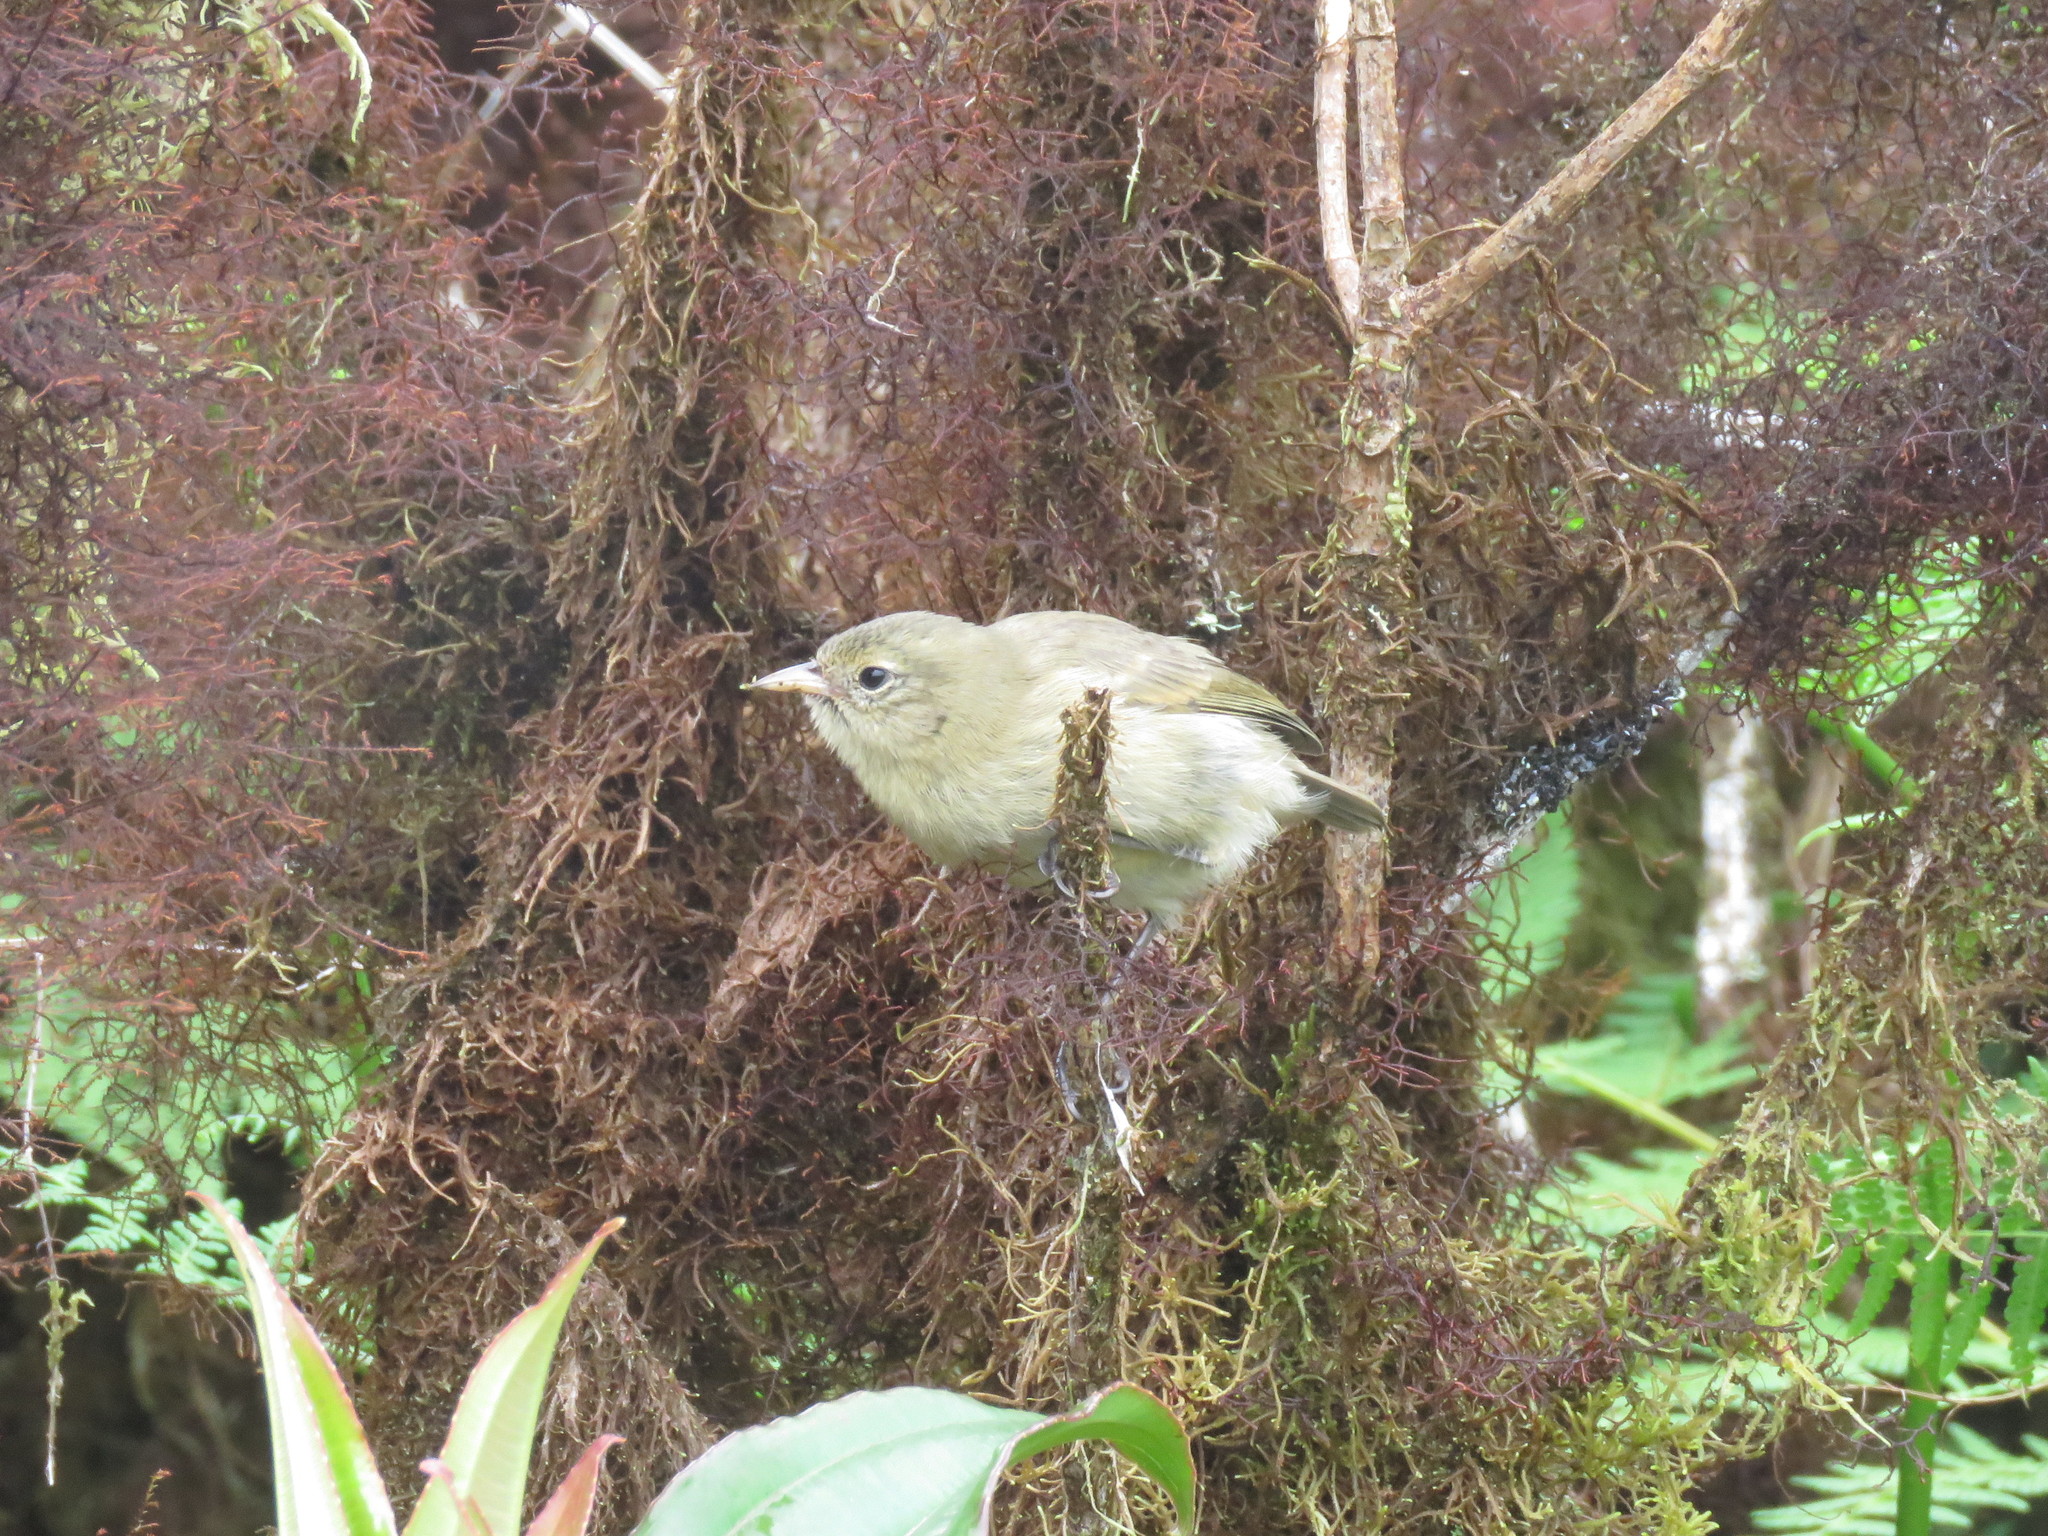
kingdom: Animalia
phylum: Chordata
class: Aves
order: Passeriformes
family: Thraupidae
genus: Certhidea
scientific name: Certhidea fusca
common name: Grey warbler-finch
